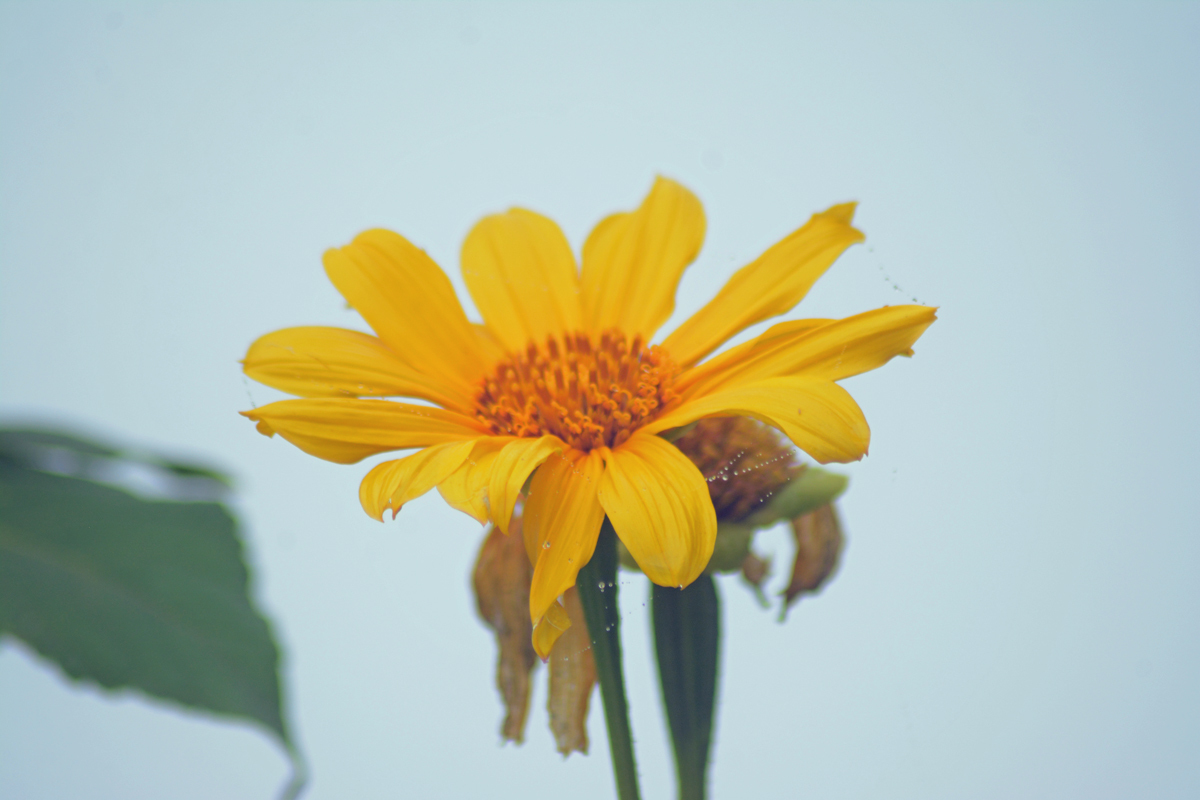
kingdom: Plantae
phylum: Tracheophyta
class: Magnoliopsida
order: Asterales
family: Asteraceae
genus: Tithonia
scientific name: Tithonia diversifolia
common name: Tree marigold
